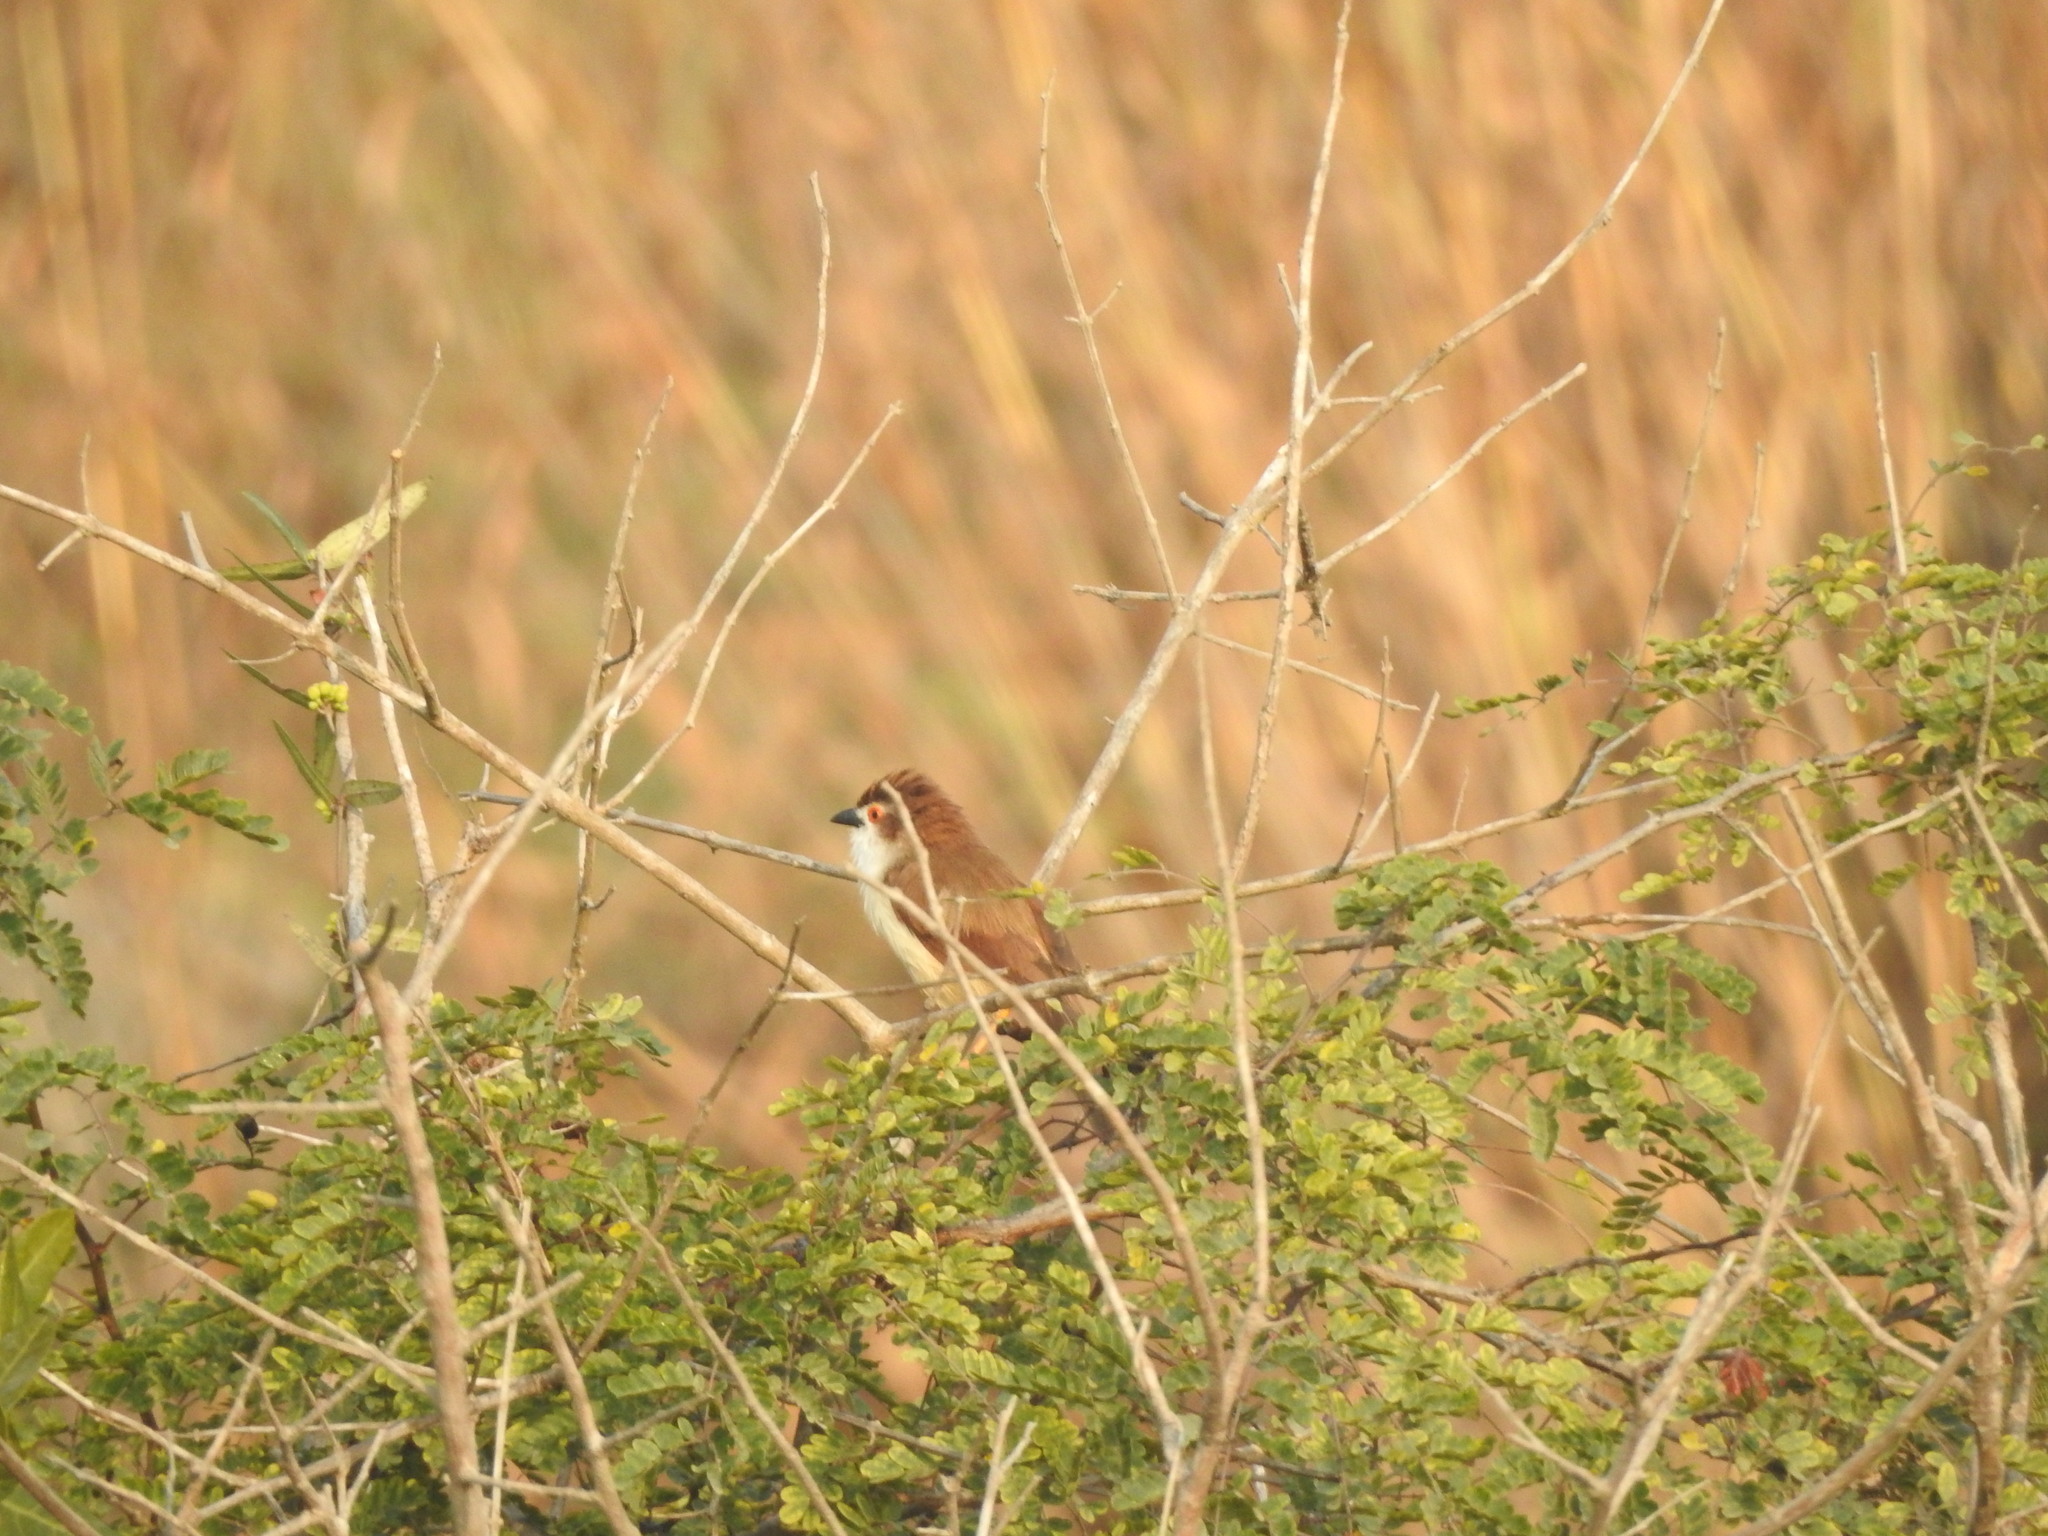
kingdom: Animalia
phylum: Chordata
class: Aves
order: Passeriformes
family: Sylviidae
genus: Chrysomma
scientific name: Chrysomma sinense
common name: Yellow-eyed babbler
